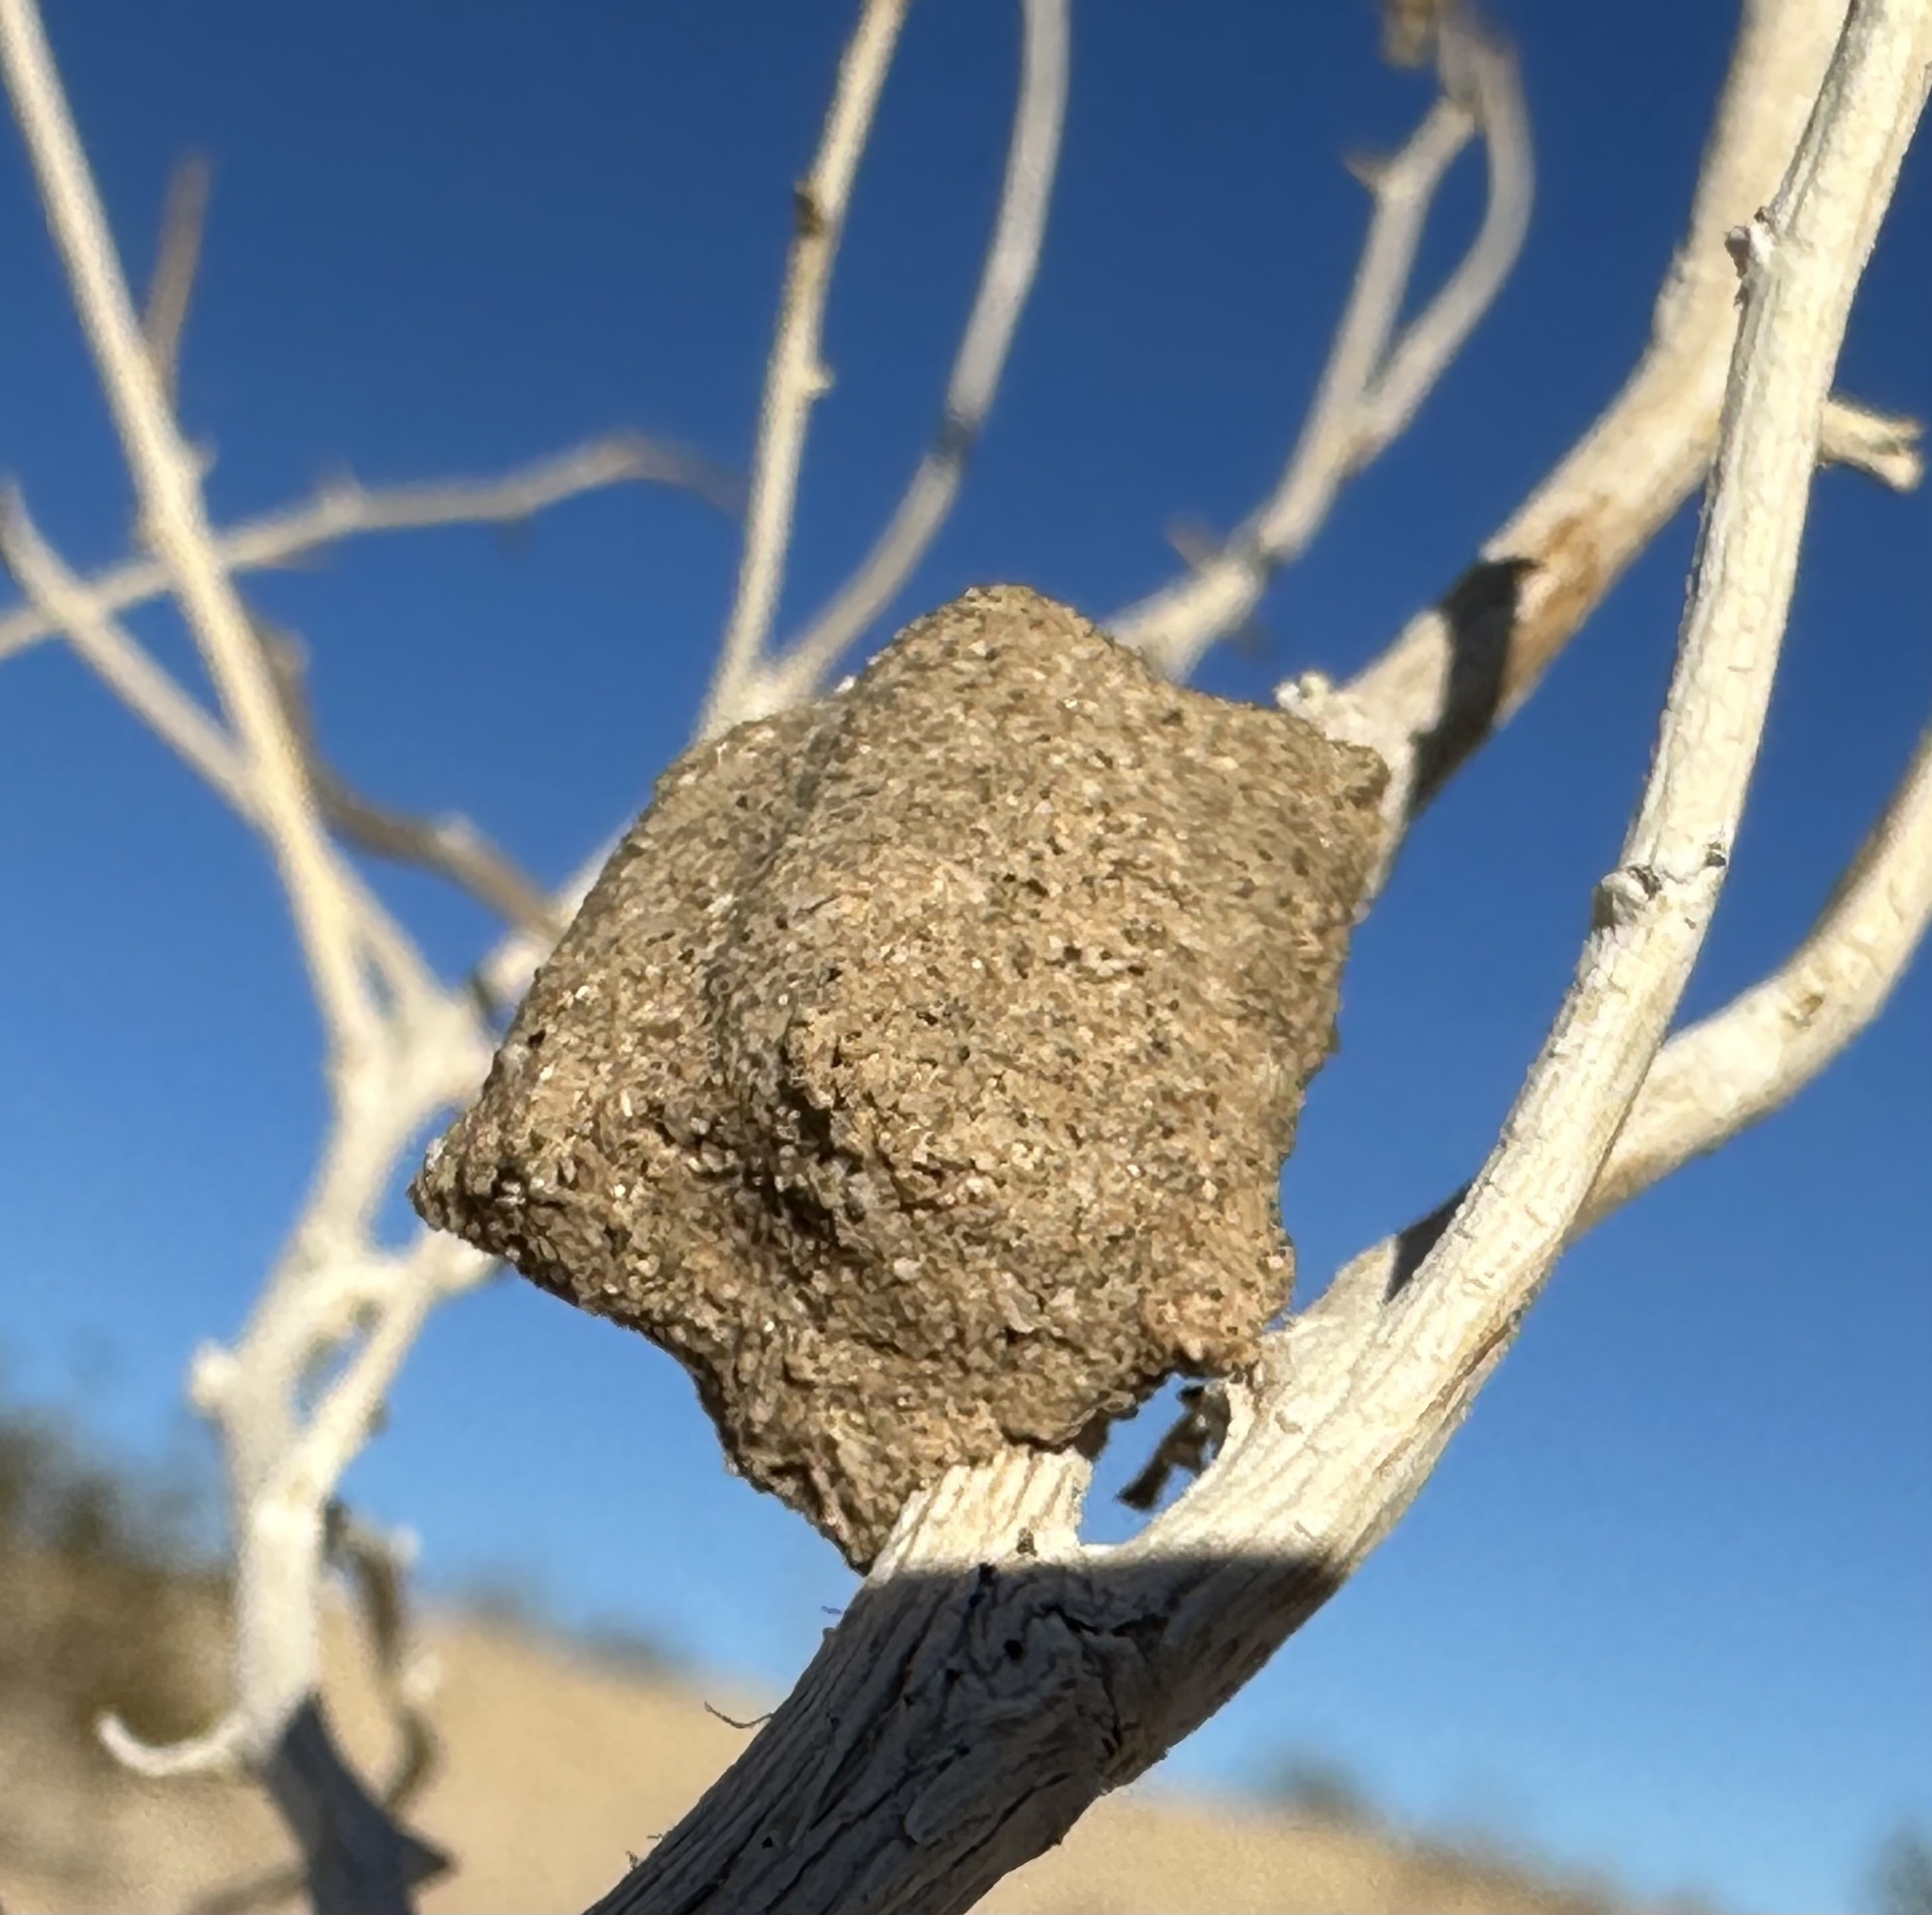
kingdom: Animalia
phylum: Arthropoda
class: Insecta
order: Hymenoptera
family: Masaridae
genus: Pseudomasaris
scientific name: Pseudomasaris
